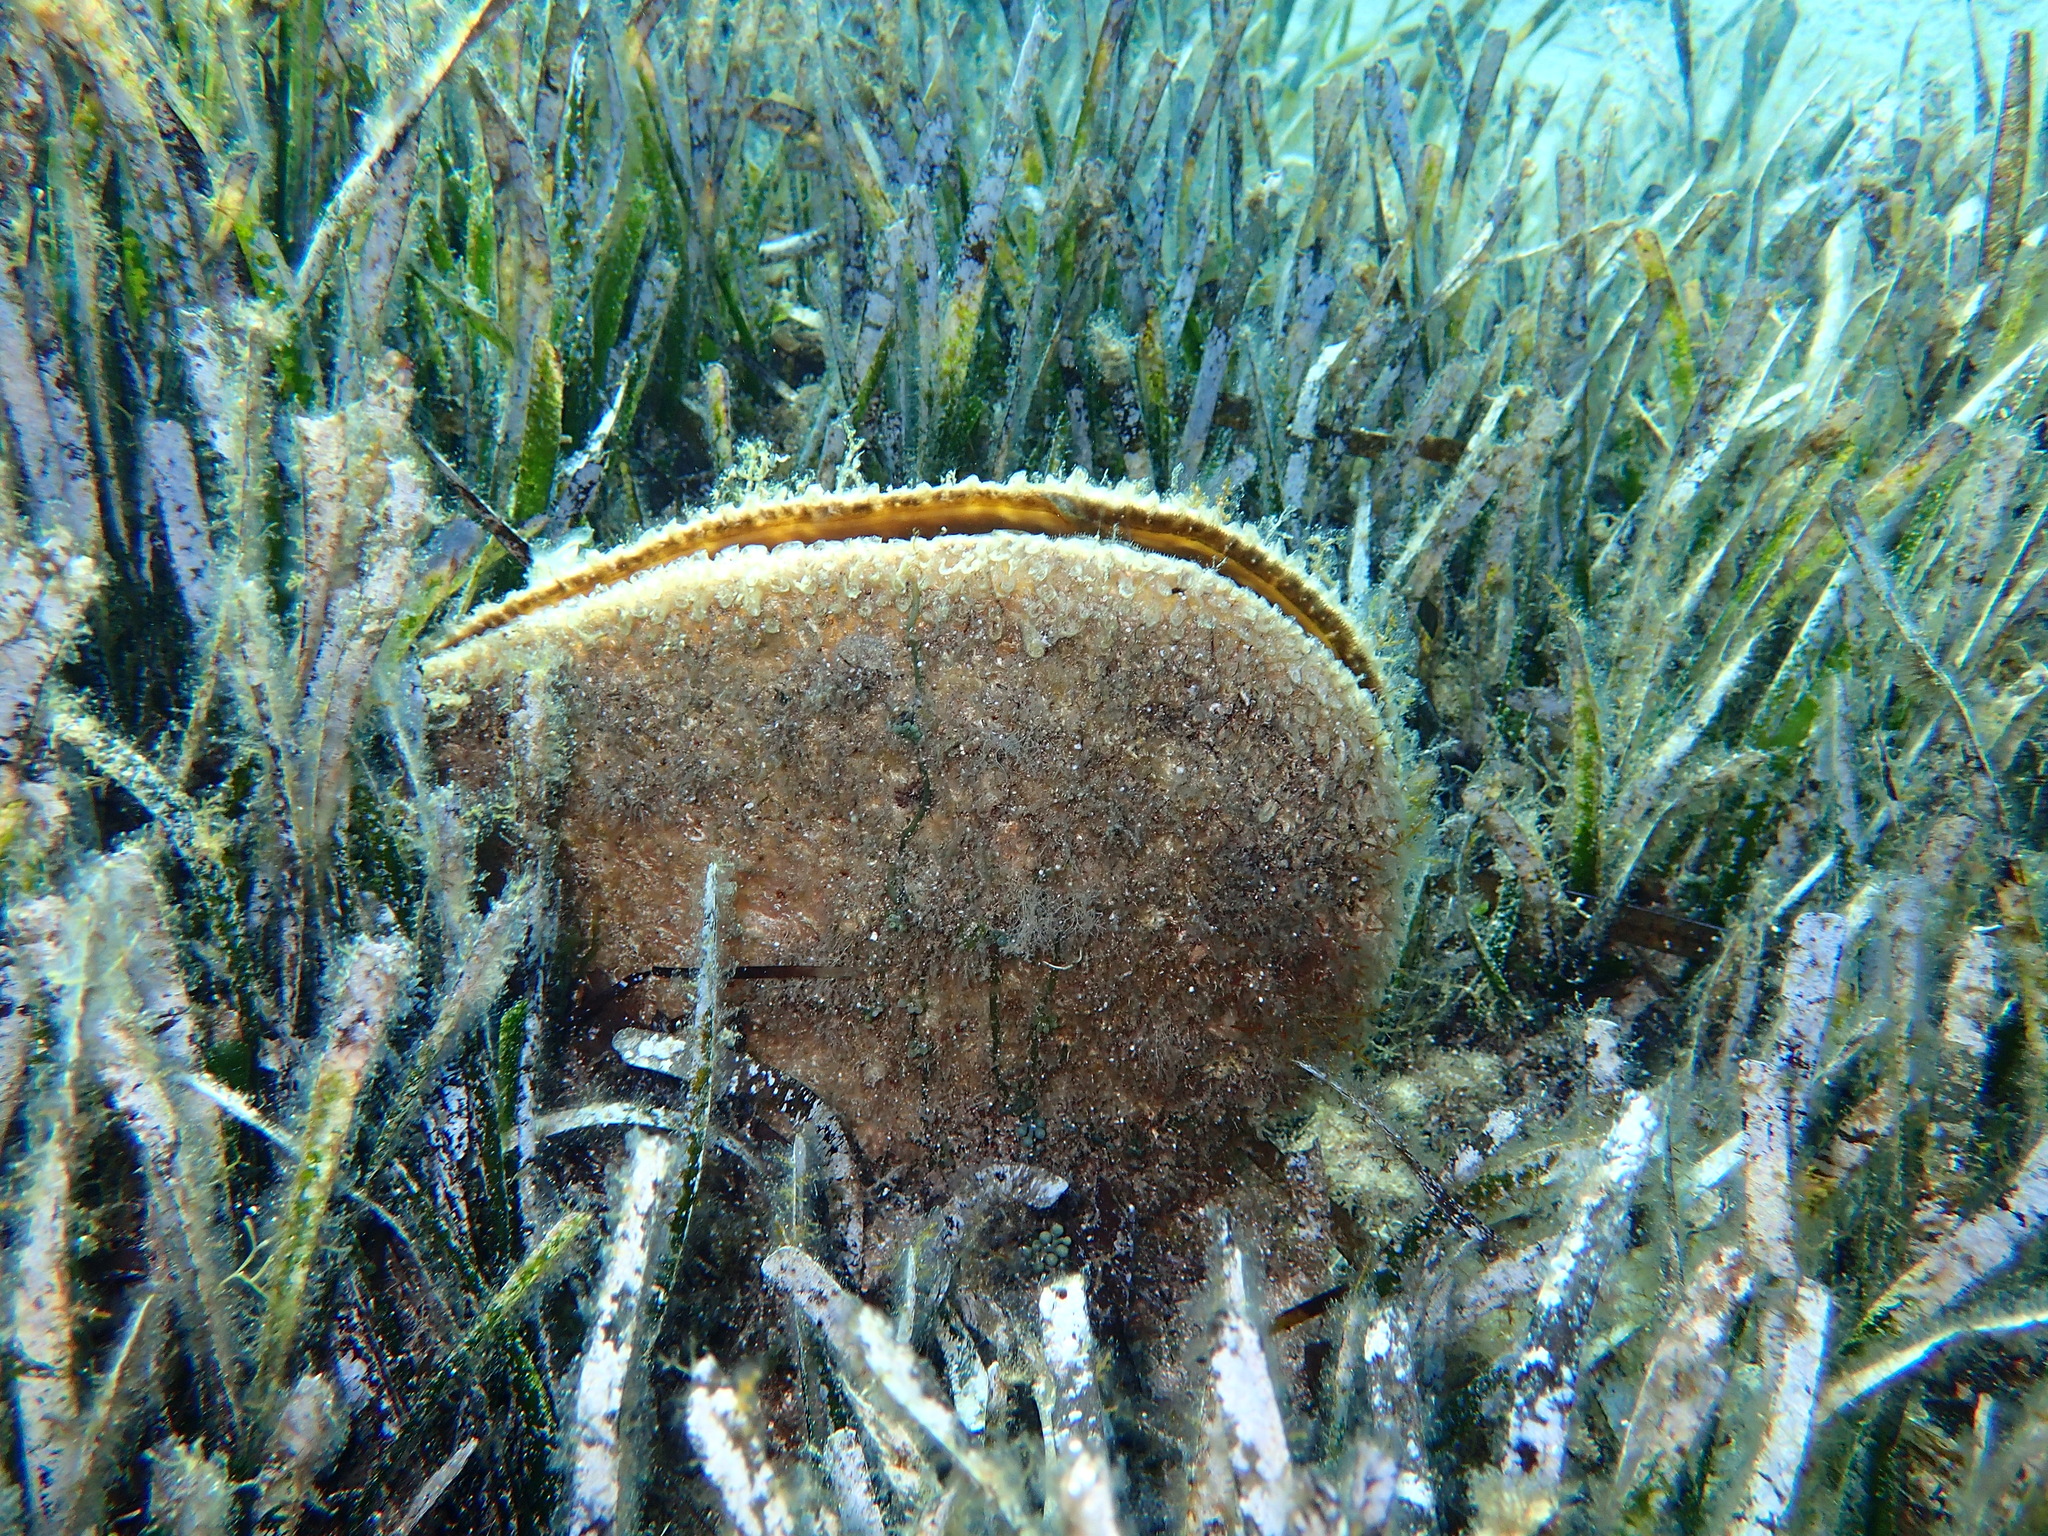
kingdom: Animalia
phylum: Mollusca
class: Bivalvia
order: Ostreida
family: Pinnidae
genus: Pinna
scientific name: Pinna nobilis
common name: Fan mussel
